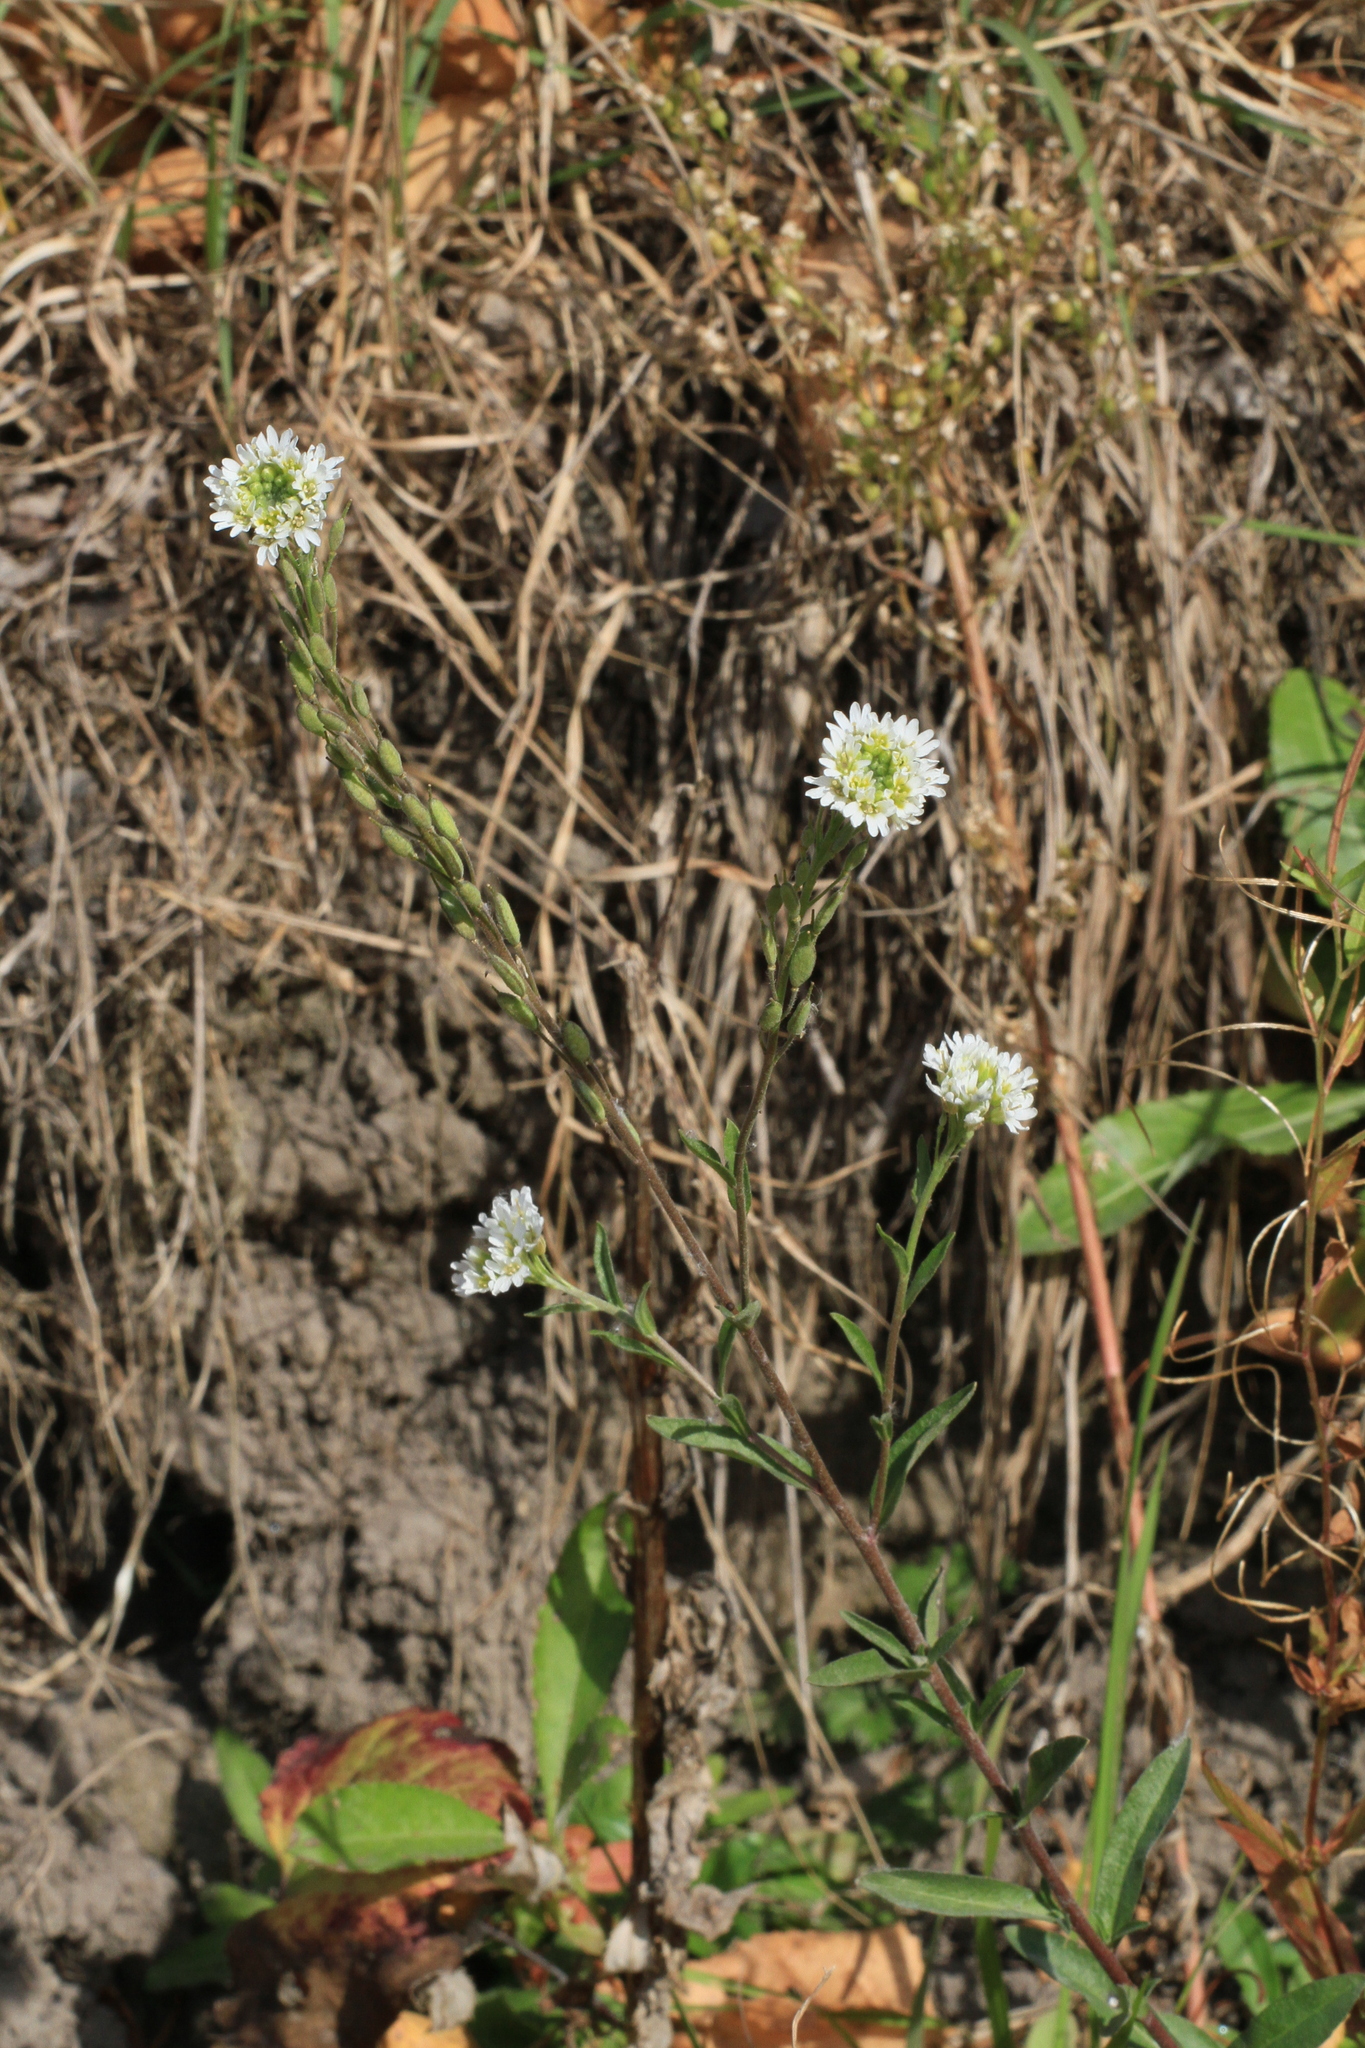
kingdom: Plantae
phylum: Tracheophyta
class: Magnoliopsida
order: Brassicales
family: Brassicaceae
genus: Berteroa
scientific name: Berteroa incana
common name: Hoary alison
